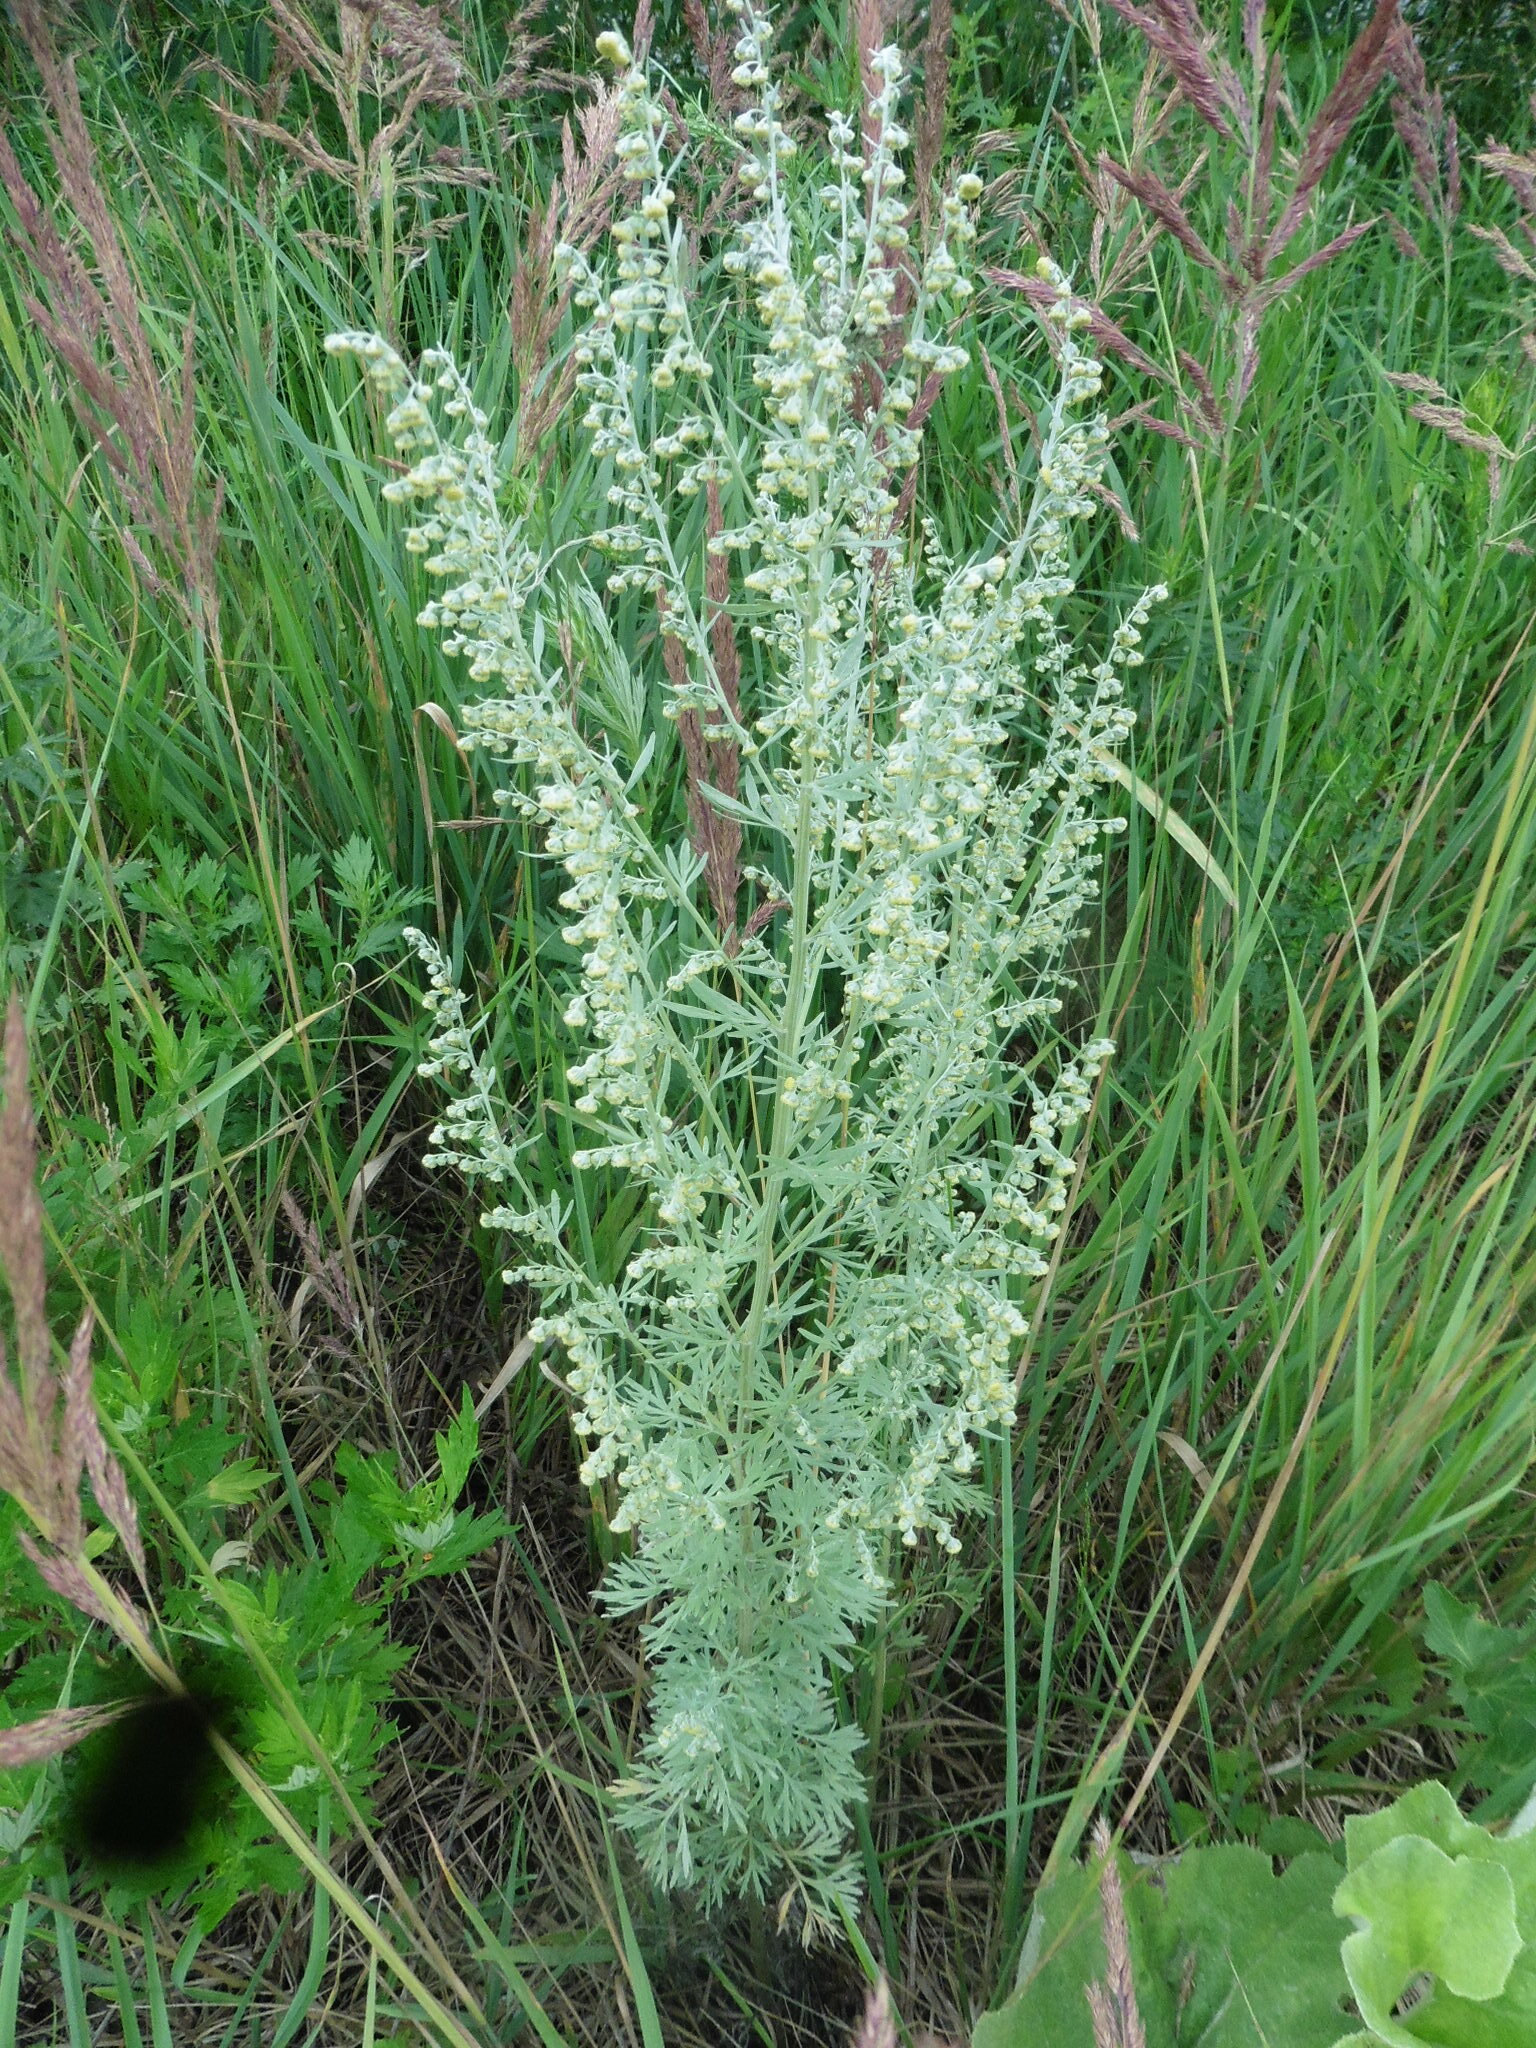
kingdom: Plantae
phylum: Tracheophyta
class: Magnoliopsida
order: Asterales
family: Asteraceae
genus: Artemisia
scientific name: Artemisia absinthium
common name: Wormwood
